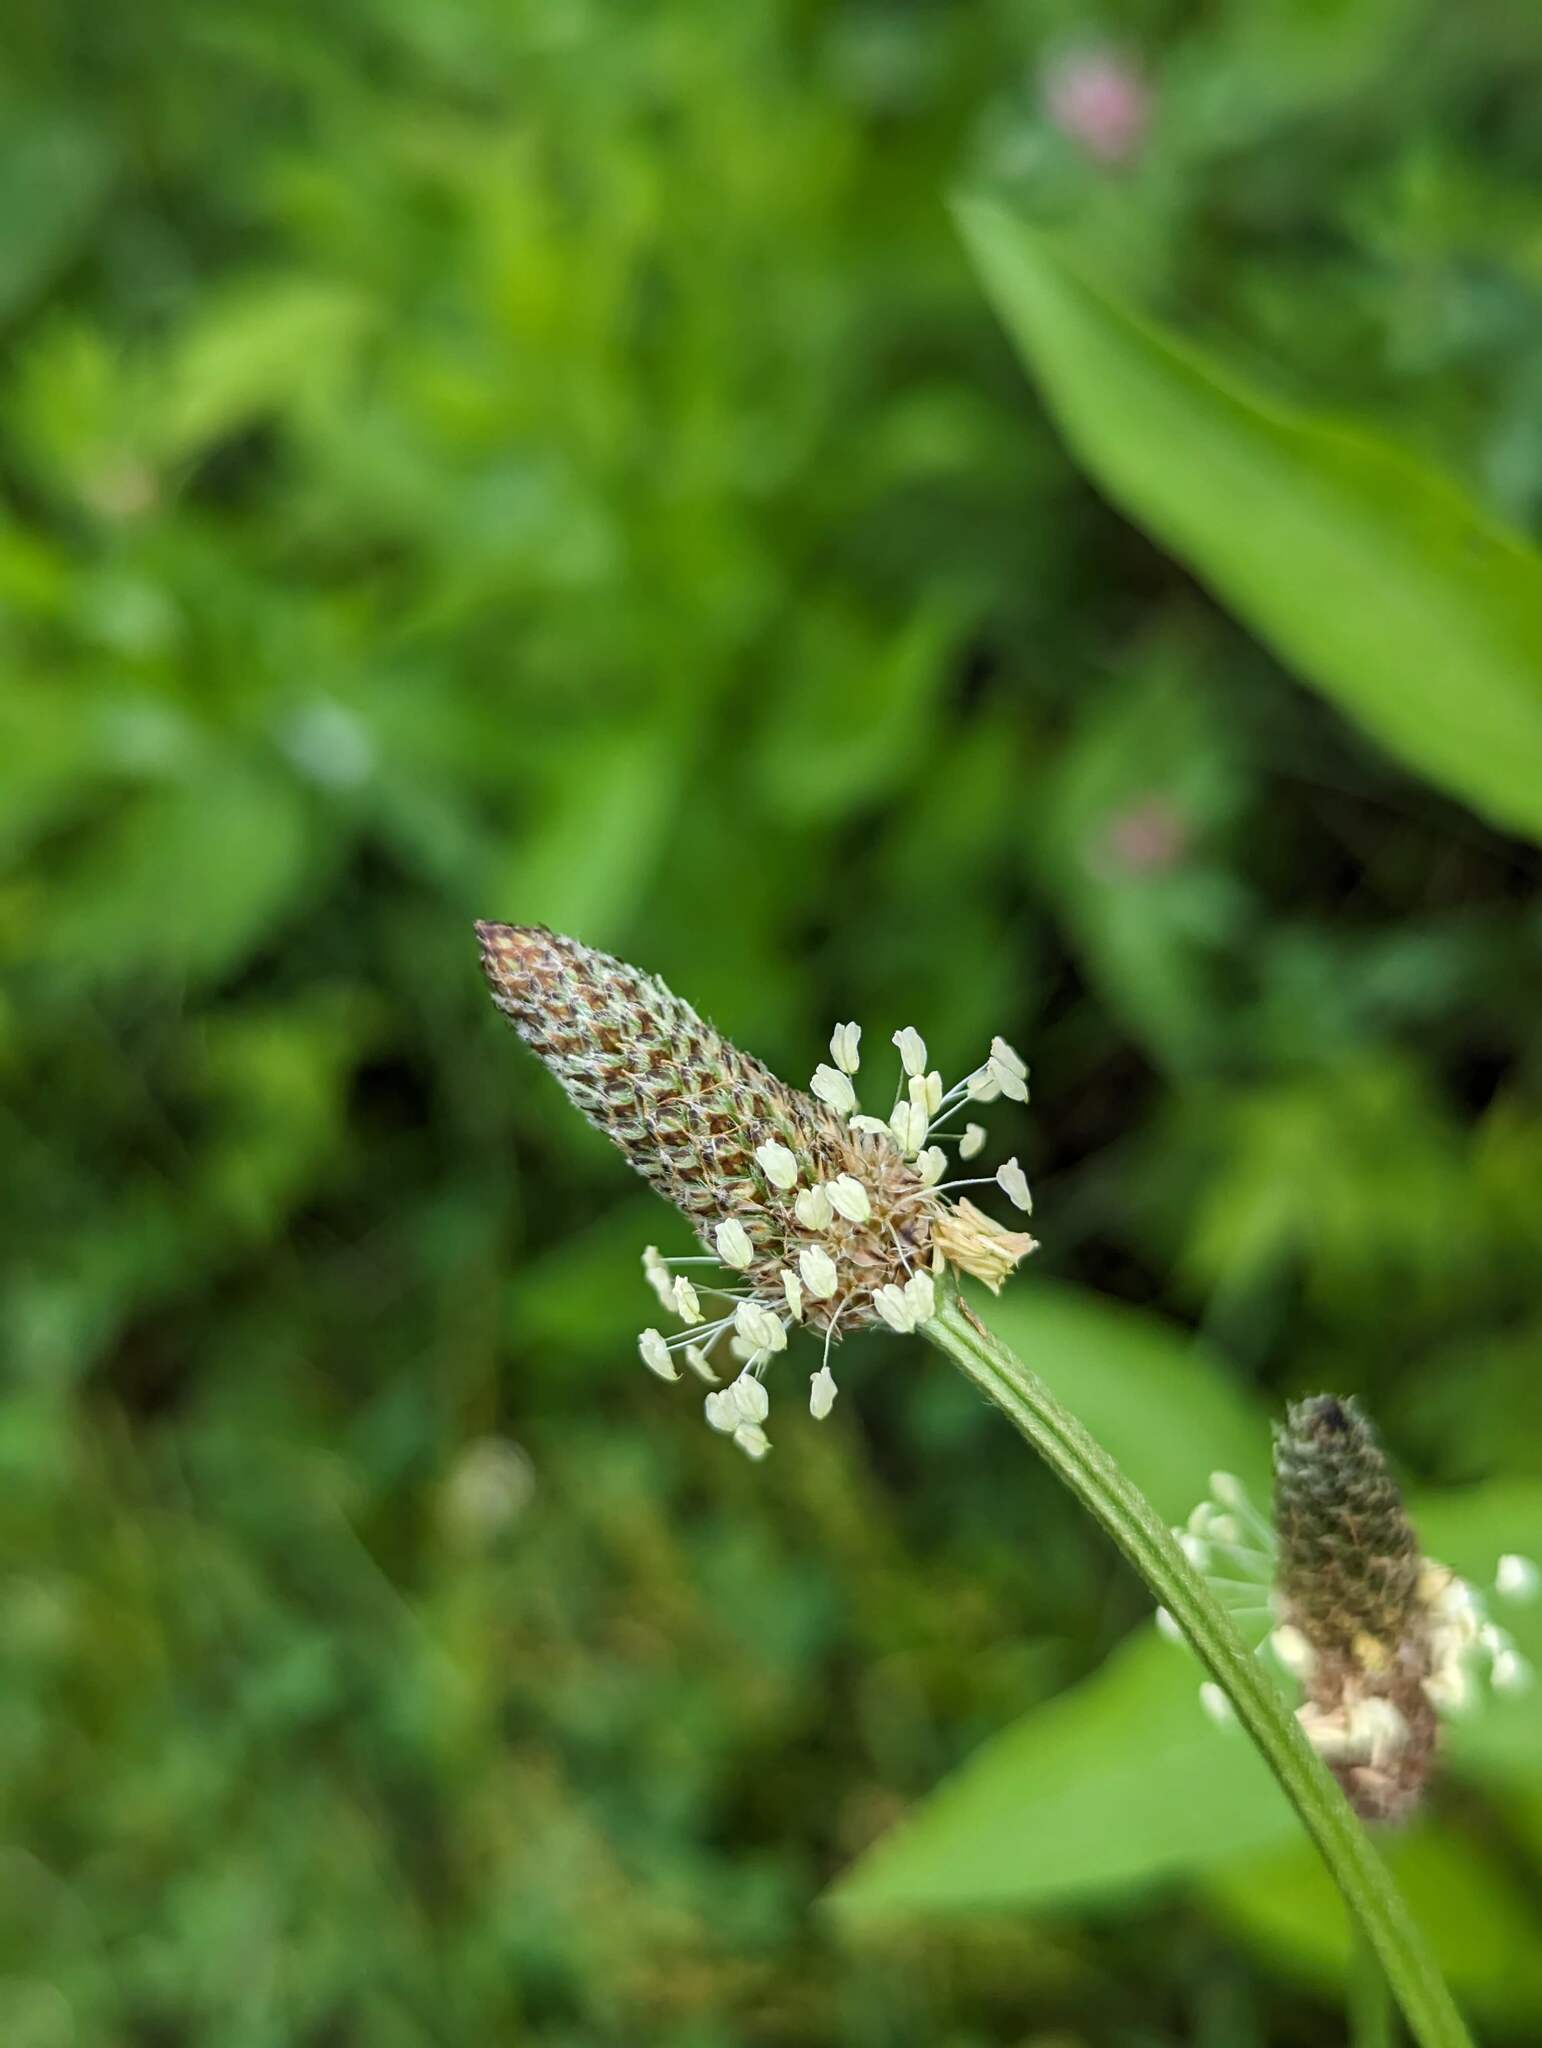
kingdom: Plantae
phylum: Tracheophyta
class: Magnoliopsida
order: Lamiales
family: Plantaginaceae
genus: Plantago
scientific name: Plantago lanceolata
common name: Ribwort plantain
